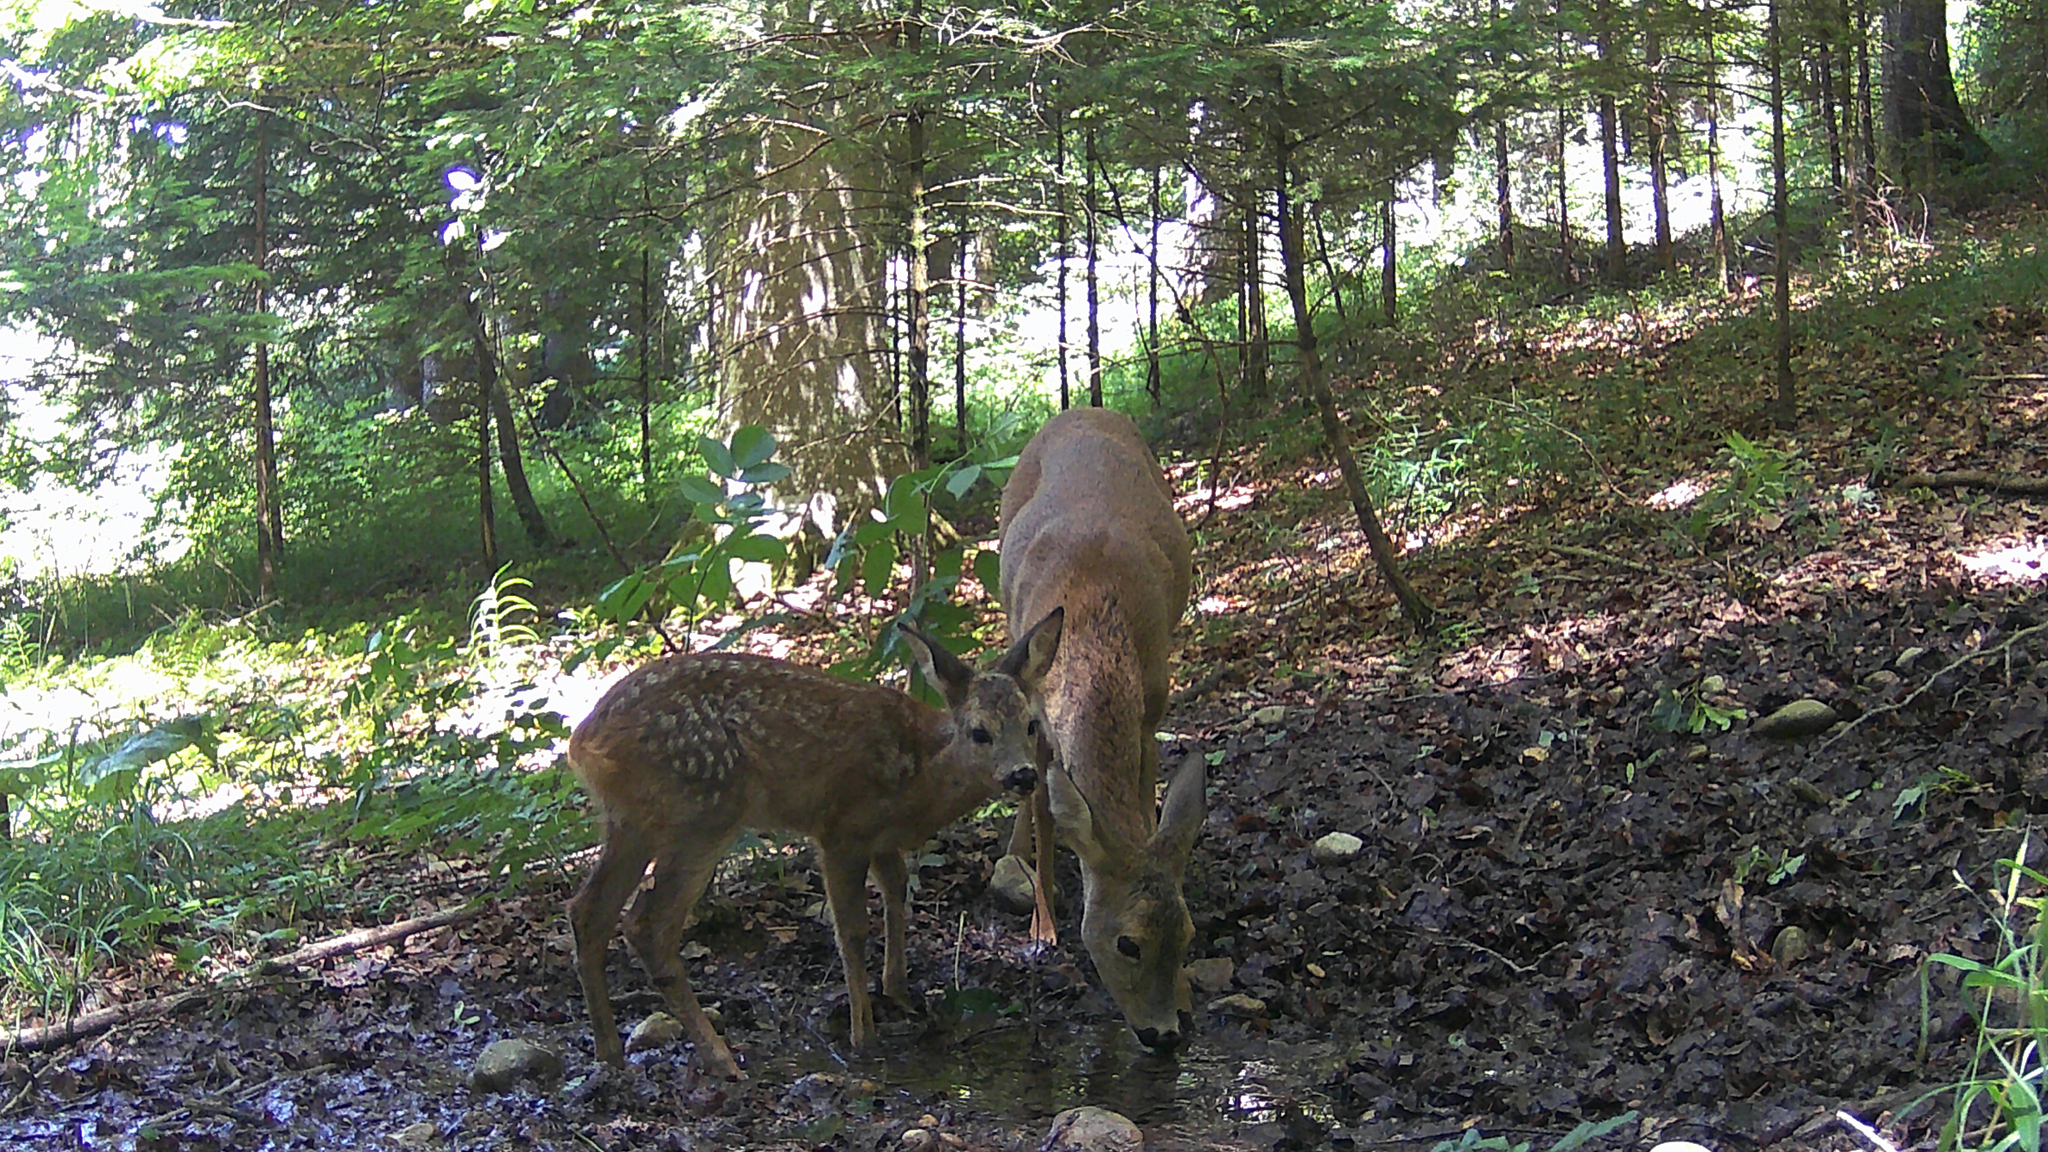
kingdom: Animalia
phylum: Chordata
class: Mammalia
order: Artiodactyla
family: Cervidae
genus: Capreolus
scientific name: Capreolus capreolus
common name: Western roe deer
